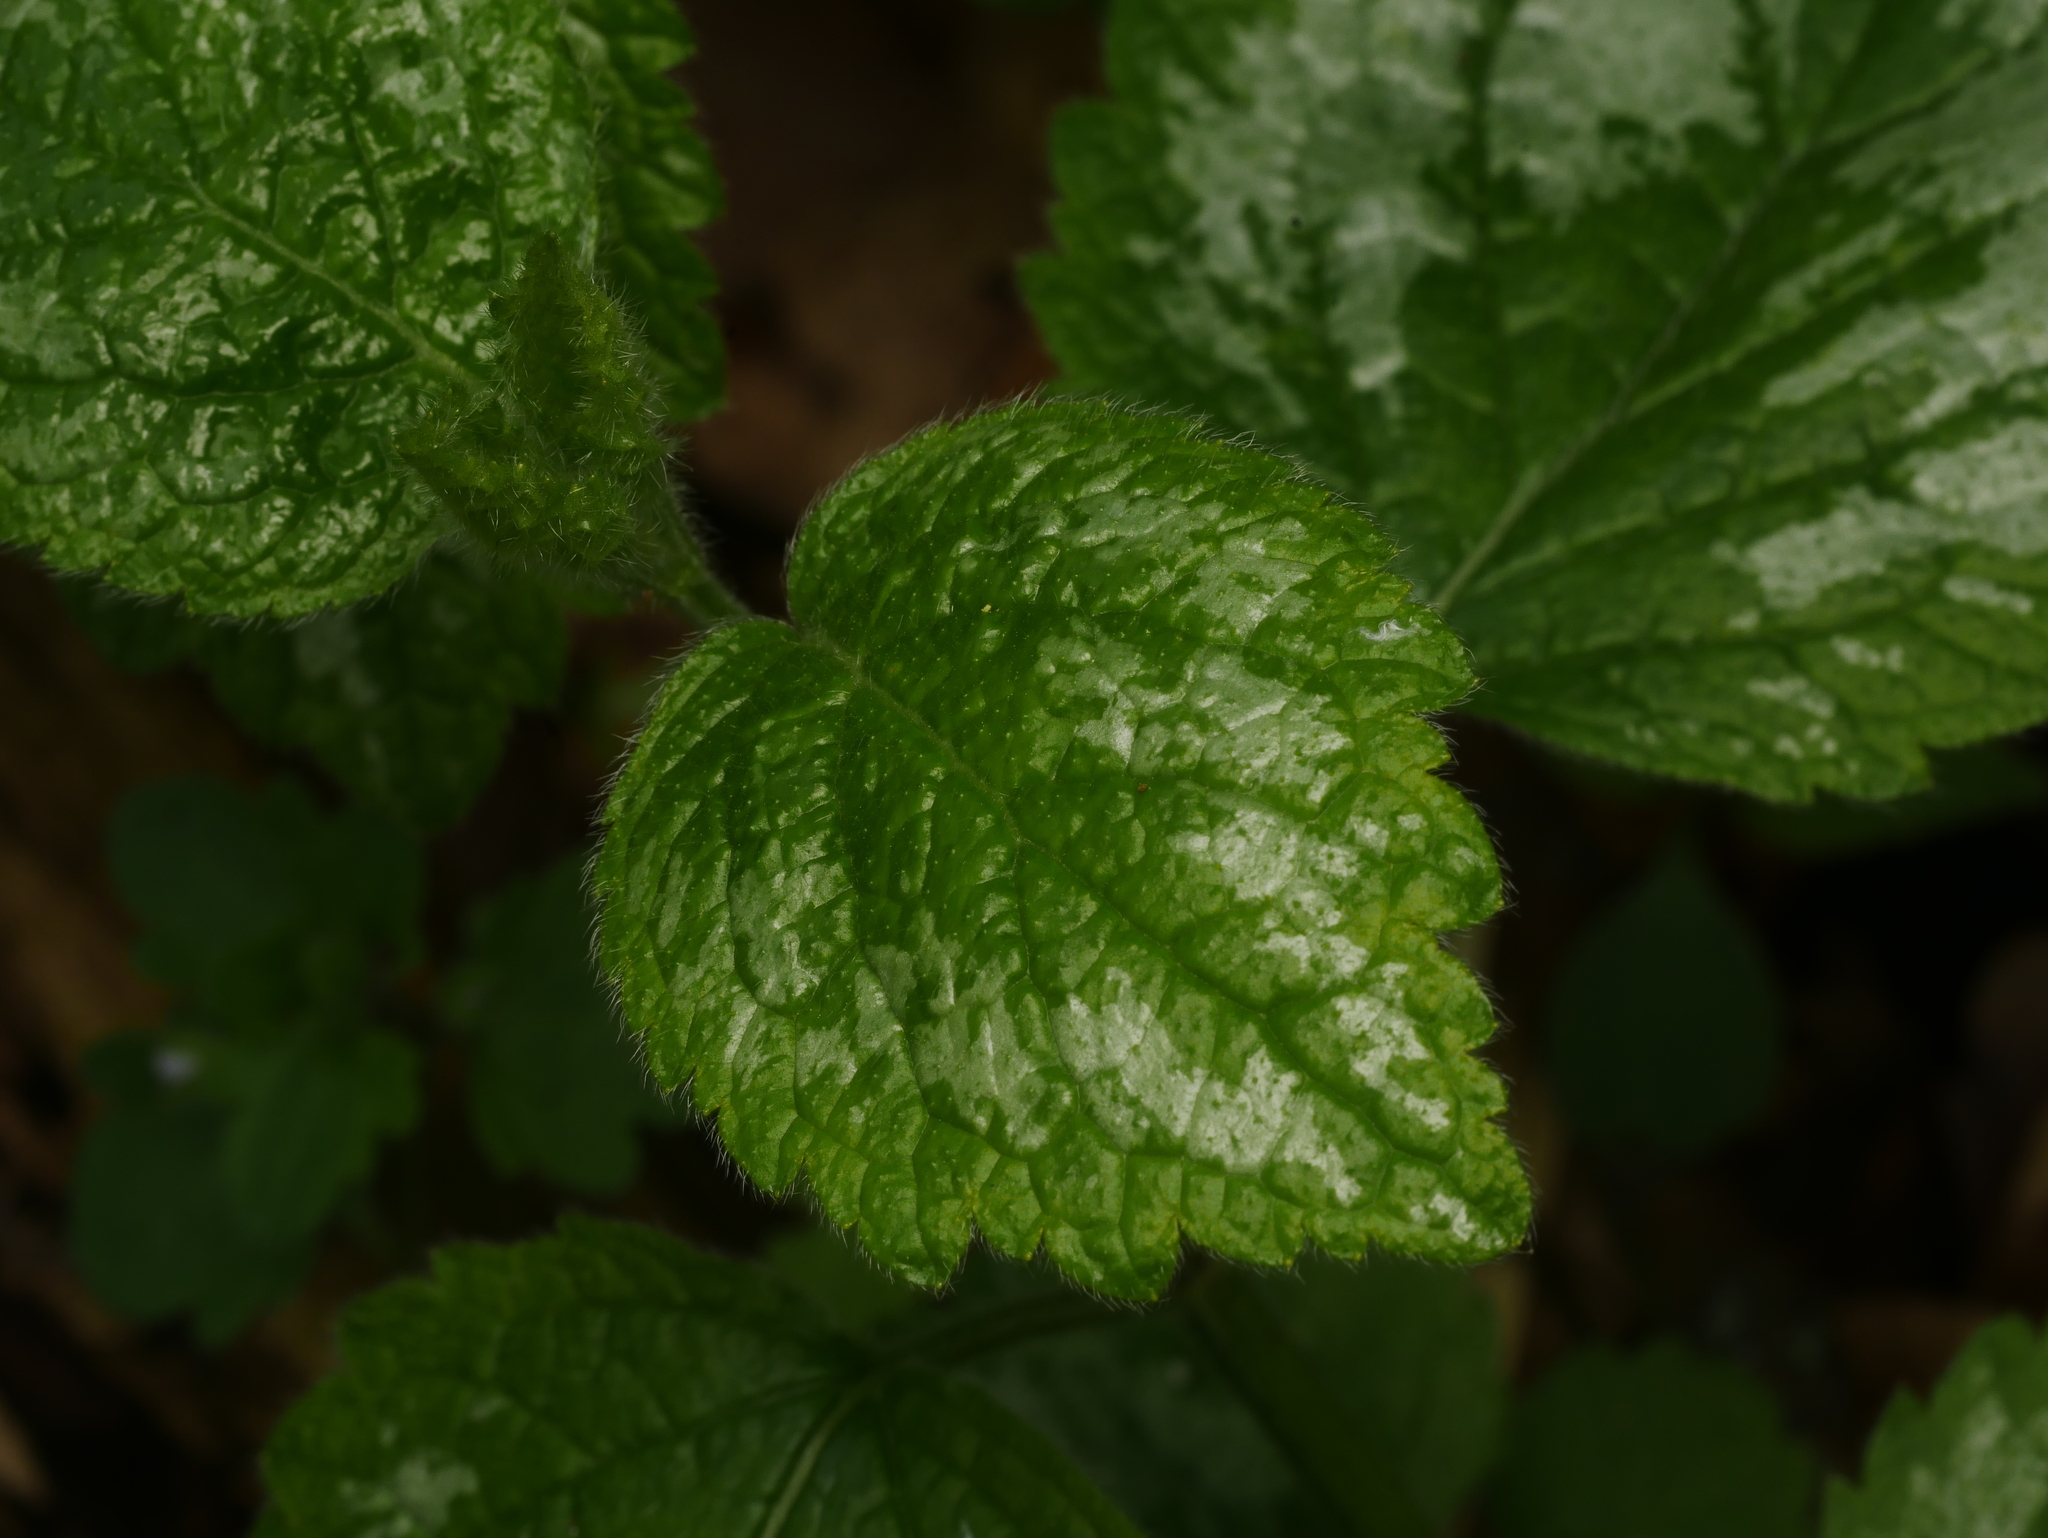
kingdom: Plantae
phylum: Tracheophyta
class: Magnoliopsida
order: Lamiales
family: Lamiaceae
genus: Lamium
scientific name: Lamium galeobdolon
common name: Yellow archangel
